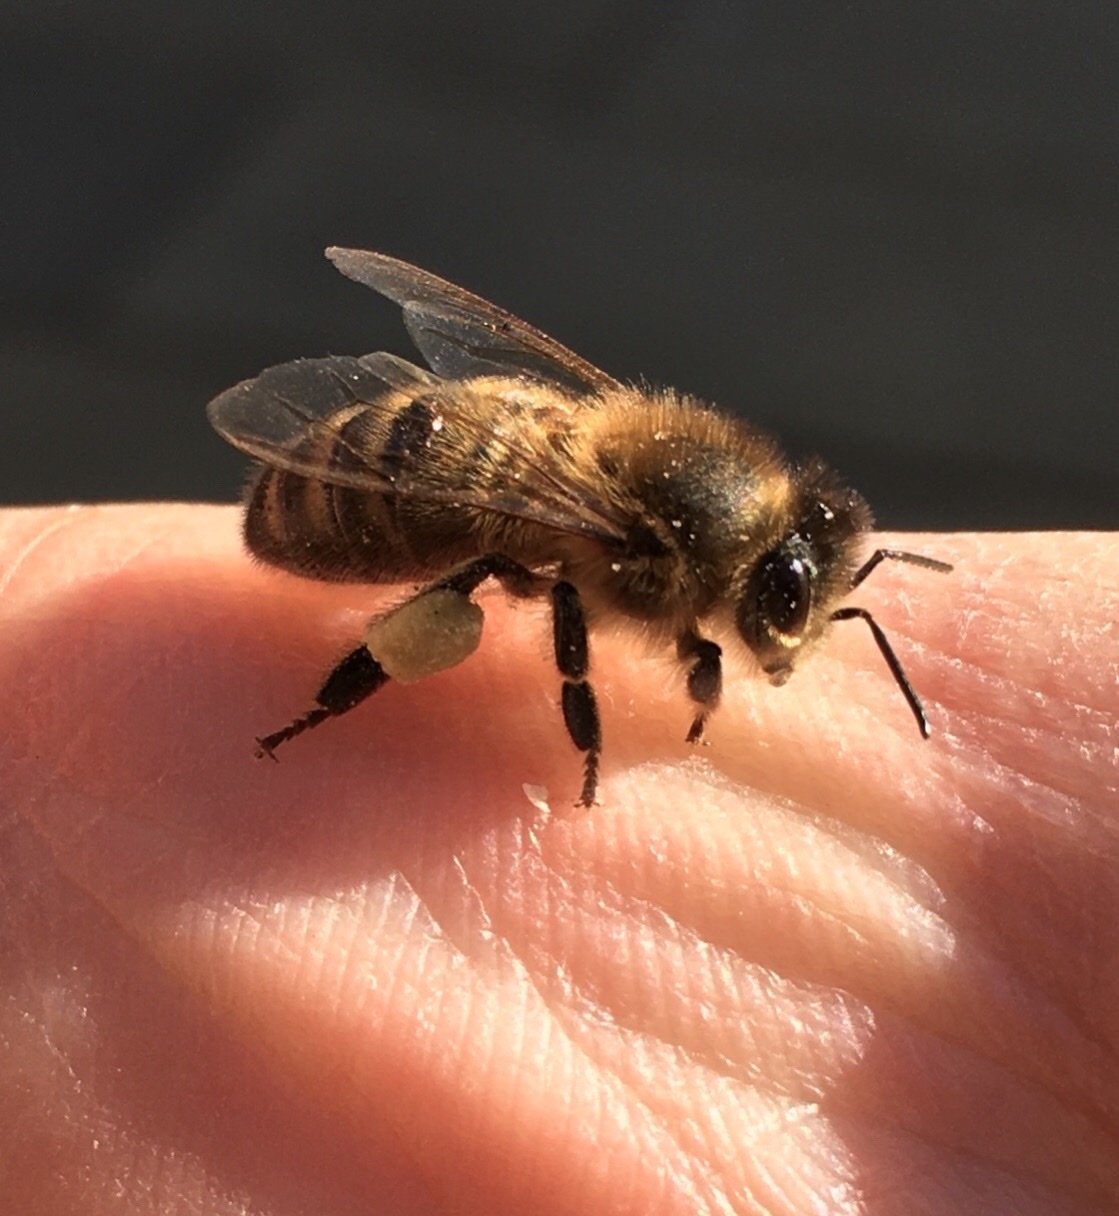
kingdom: Animalia
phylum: Arthropoda
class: Insecta
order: Hymenoptera
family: Apidae
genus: Apis
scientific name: Apis mellifera
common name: Honey bee
